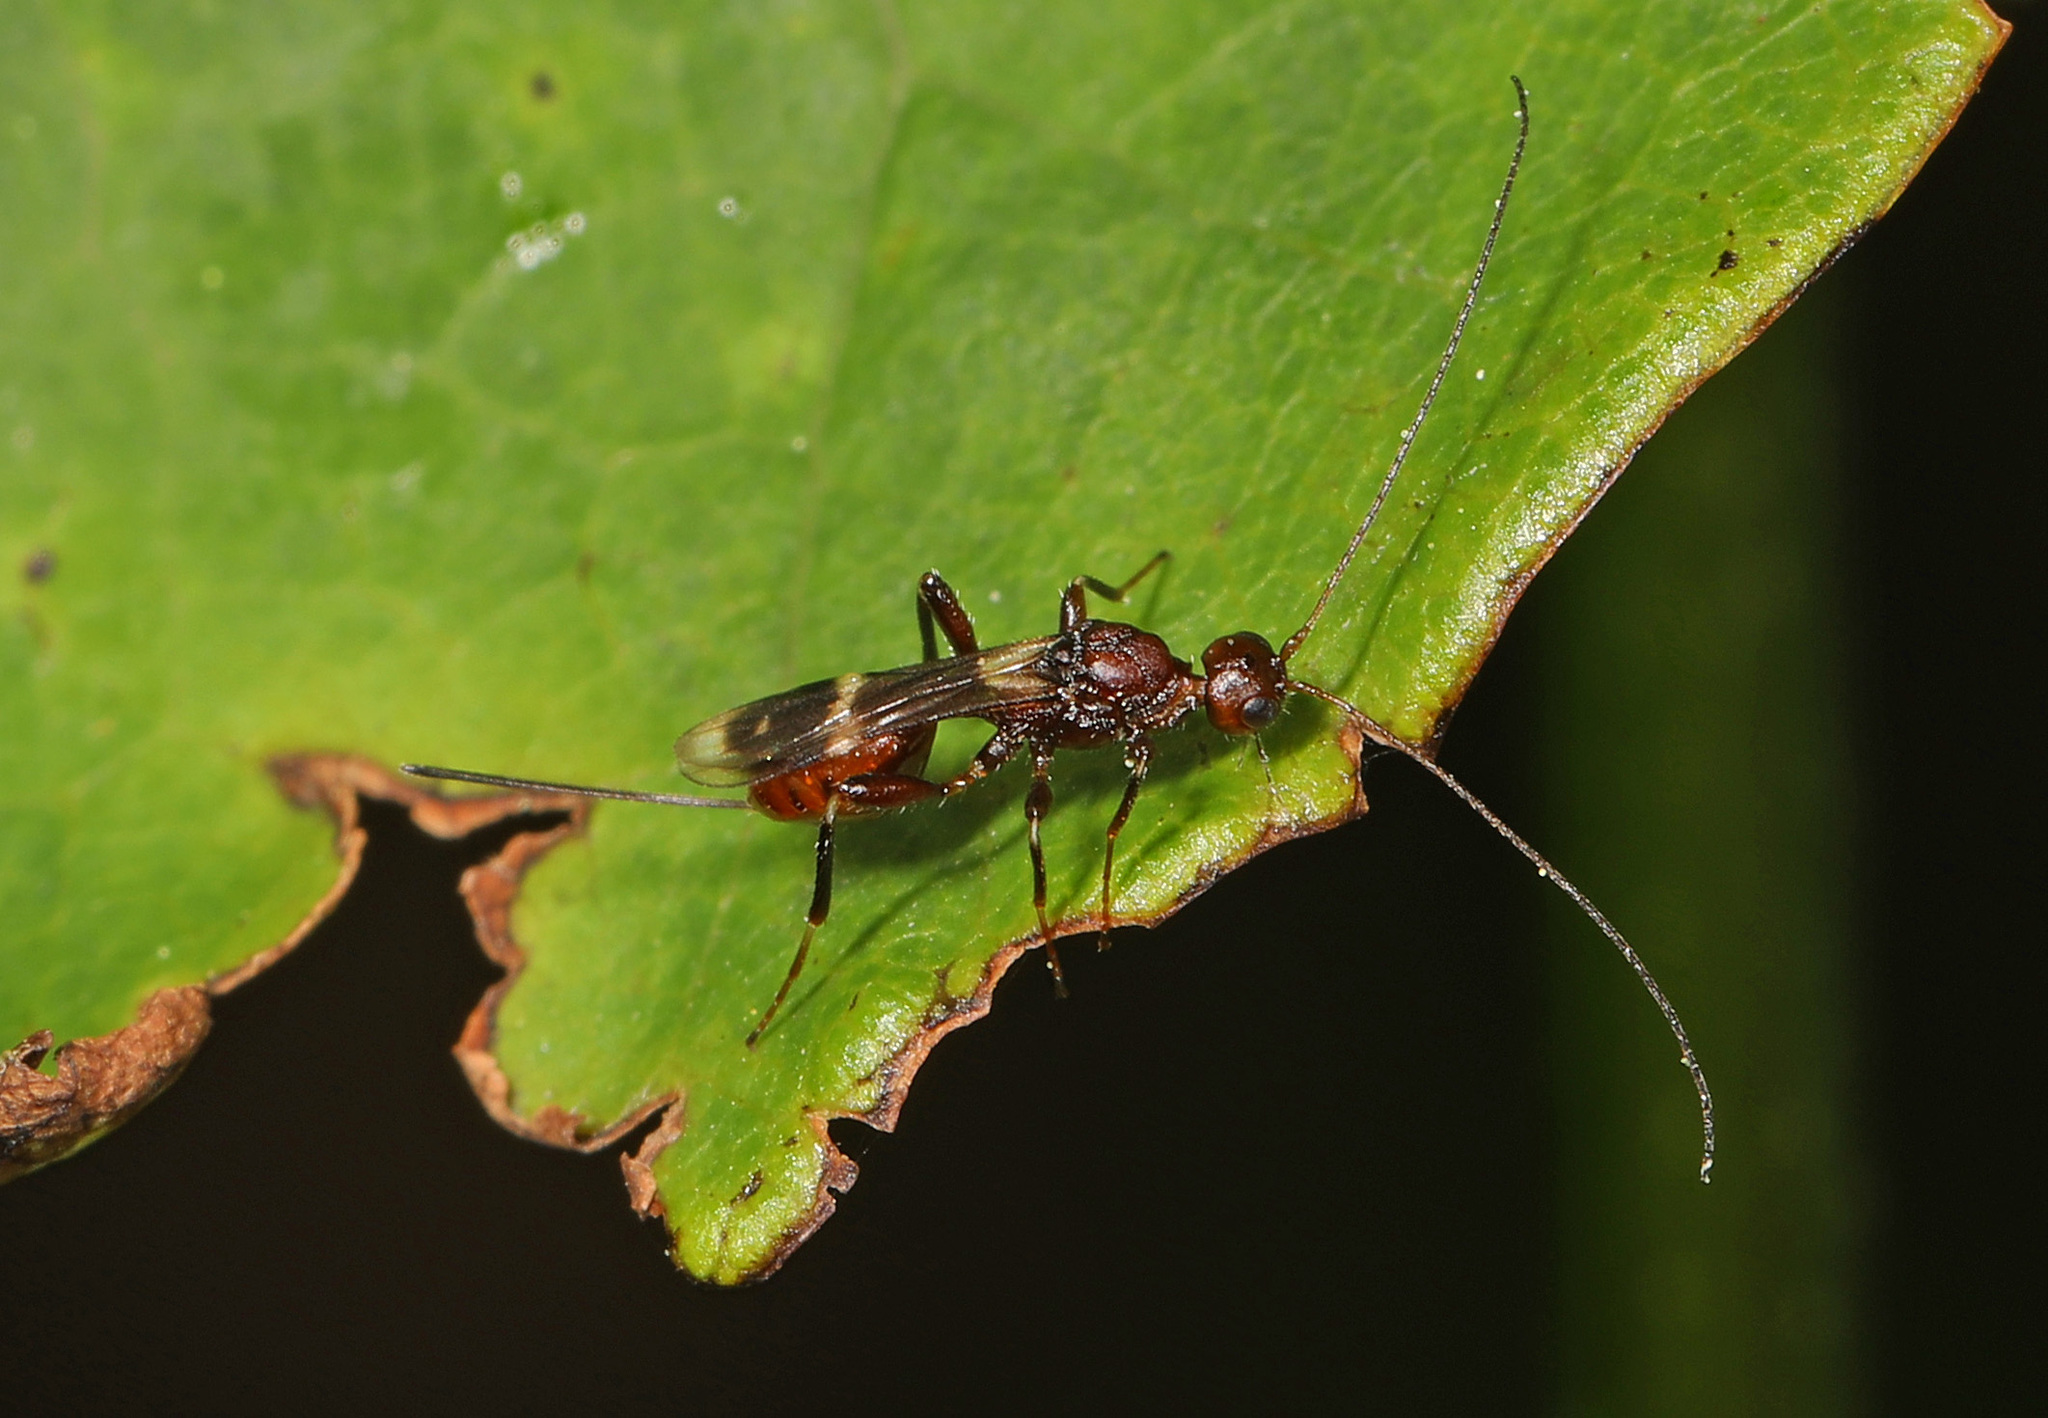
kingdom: Animalia
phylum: Arthropoda
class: Insecta
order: Hymenoptera
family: Braconidae
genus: Spathius
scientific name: Spathius elegans
